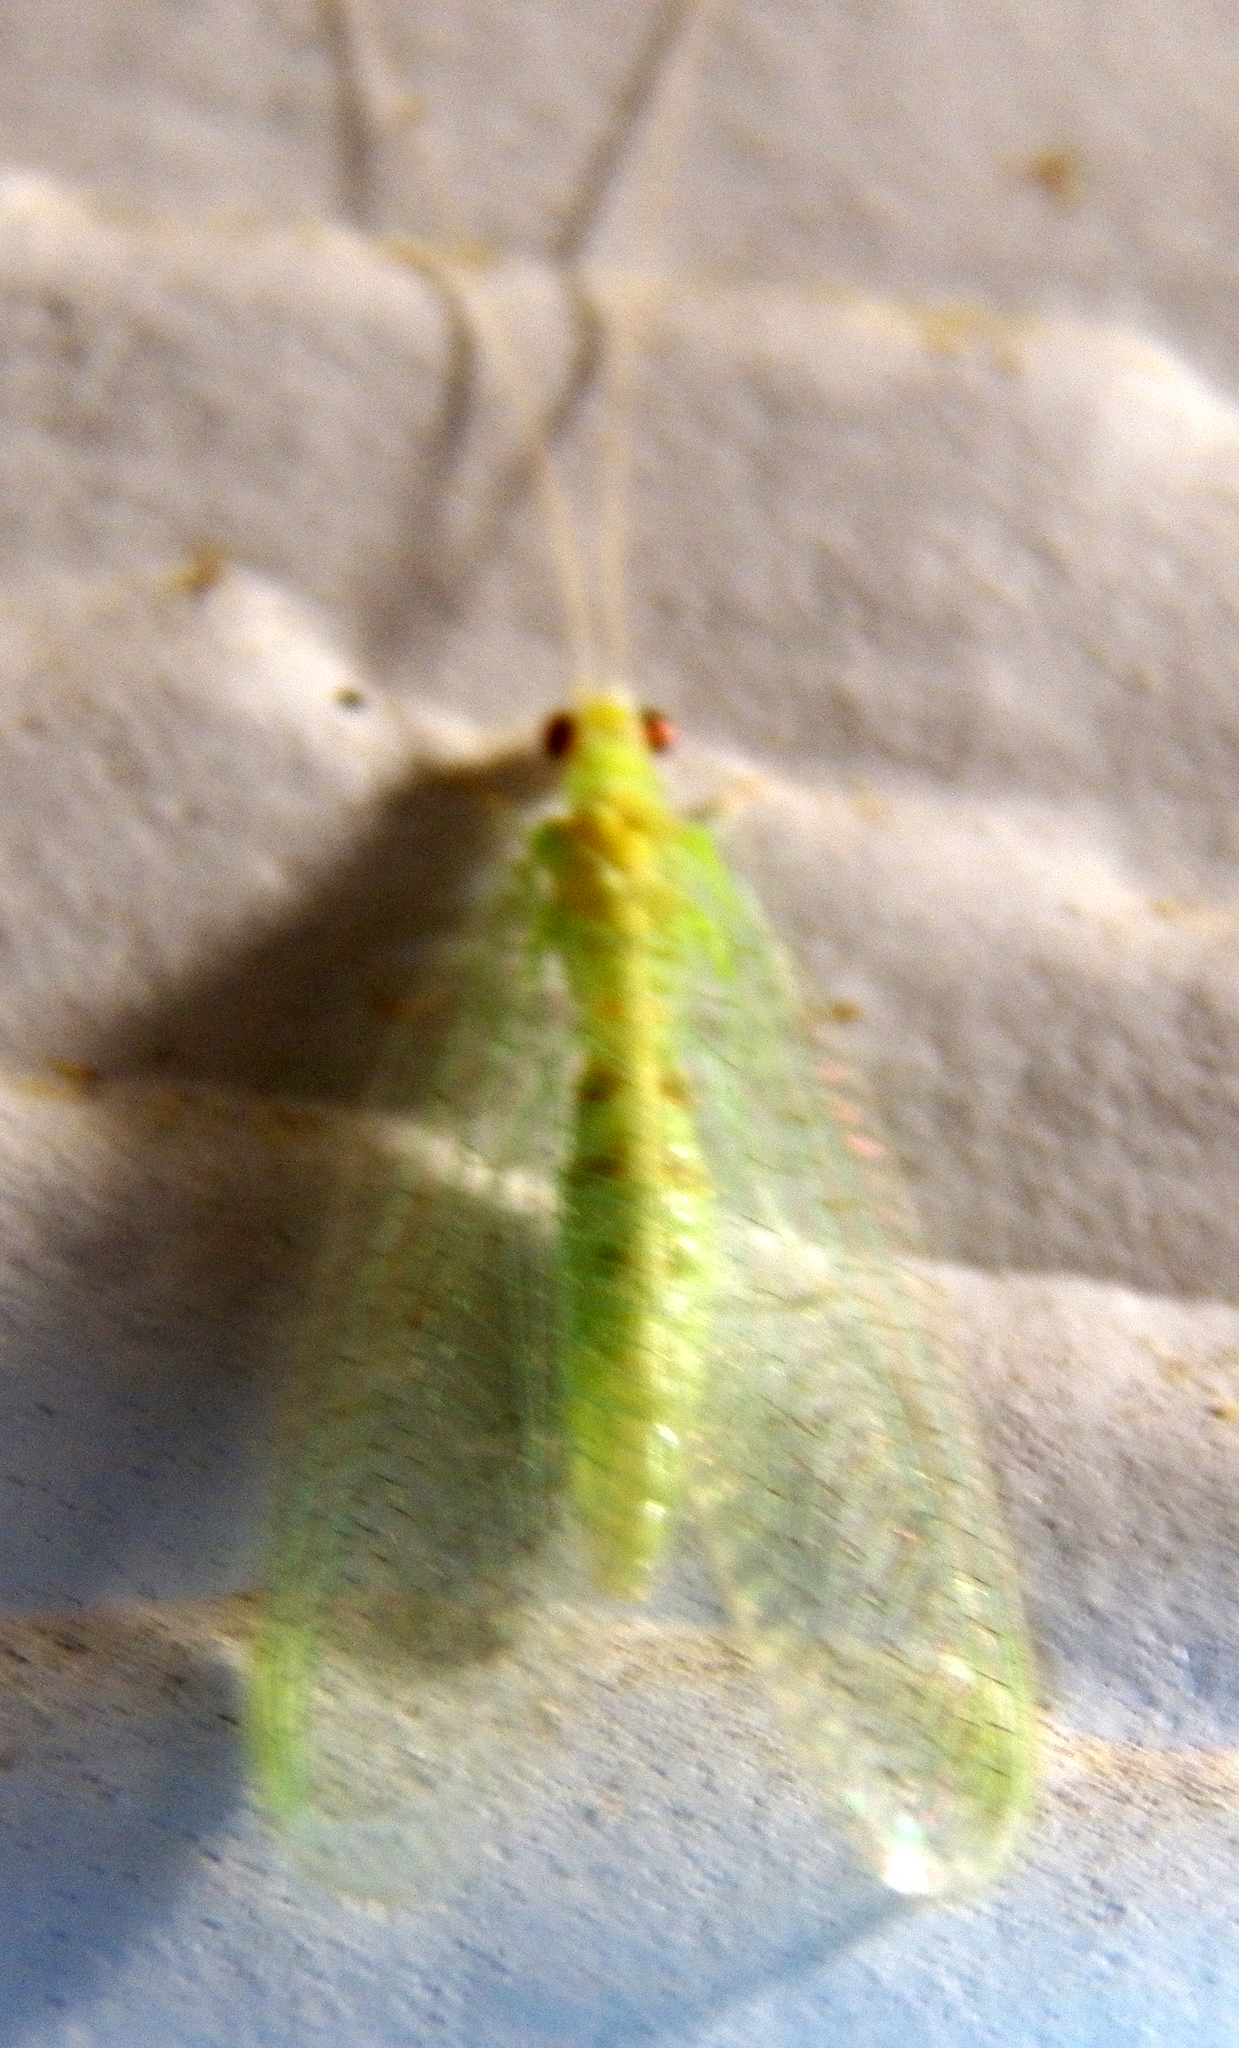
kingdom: Animalia
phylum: Arthropoda
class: Insecta
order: Neuroptera
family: Chrysopidae
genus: Chrysopa
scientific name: Chrysopa quadripunctata
